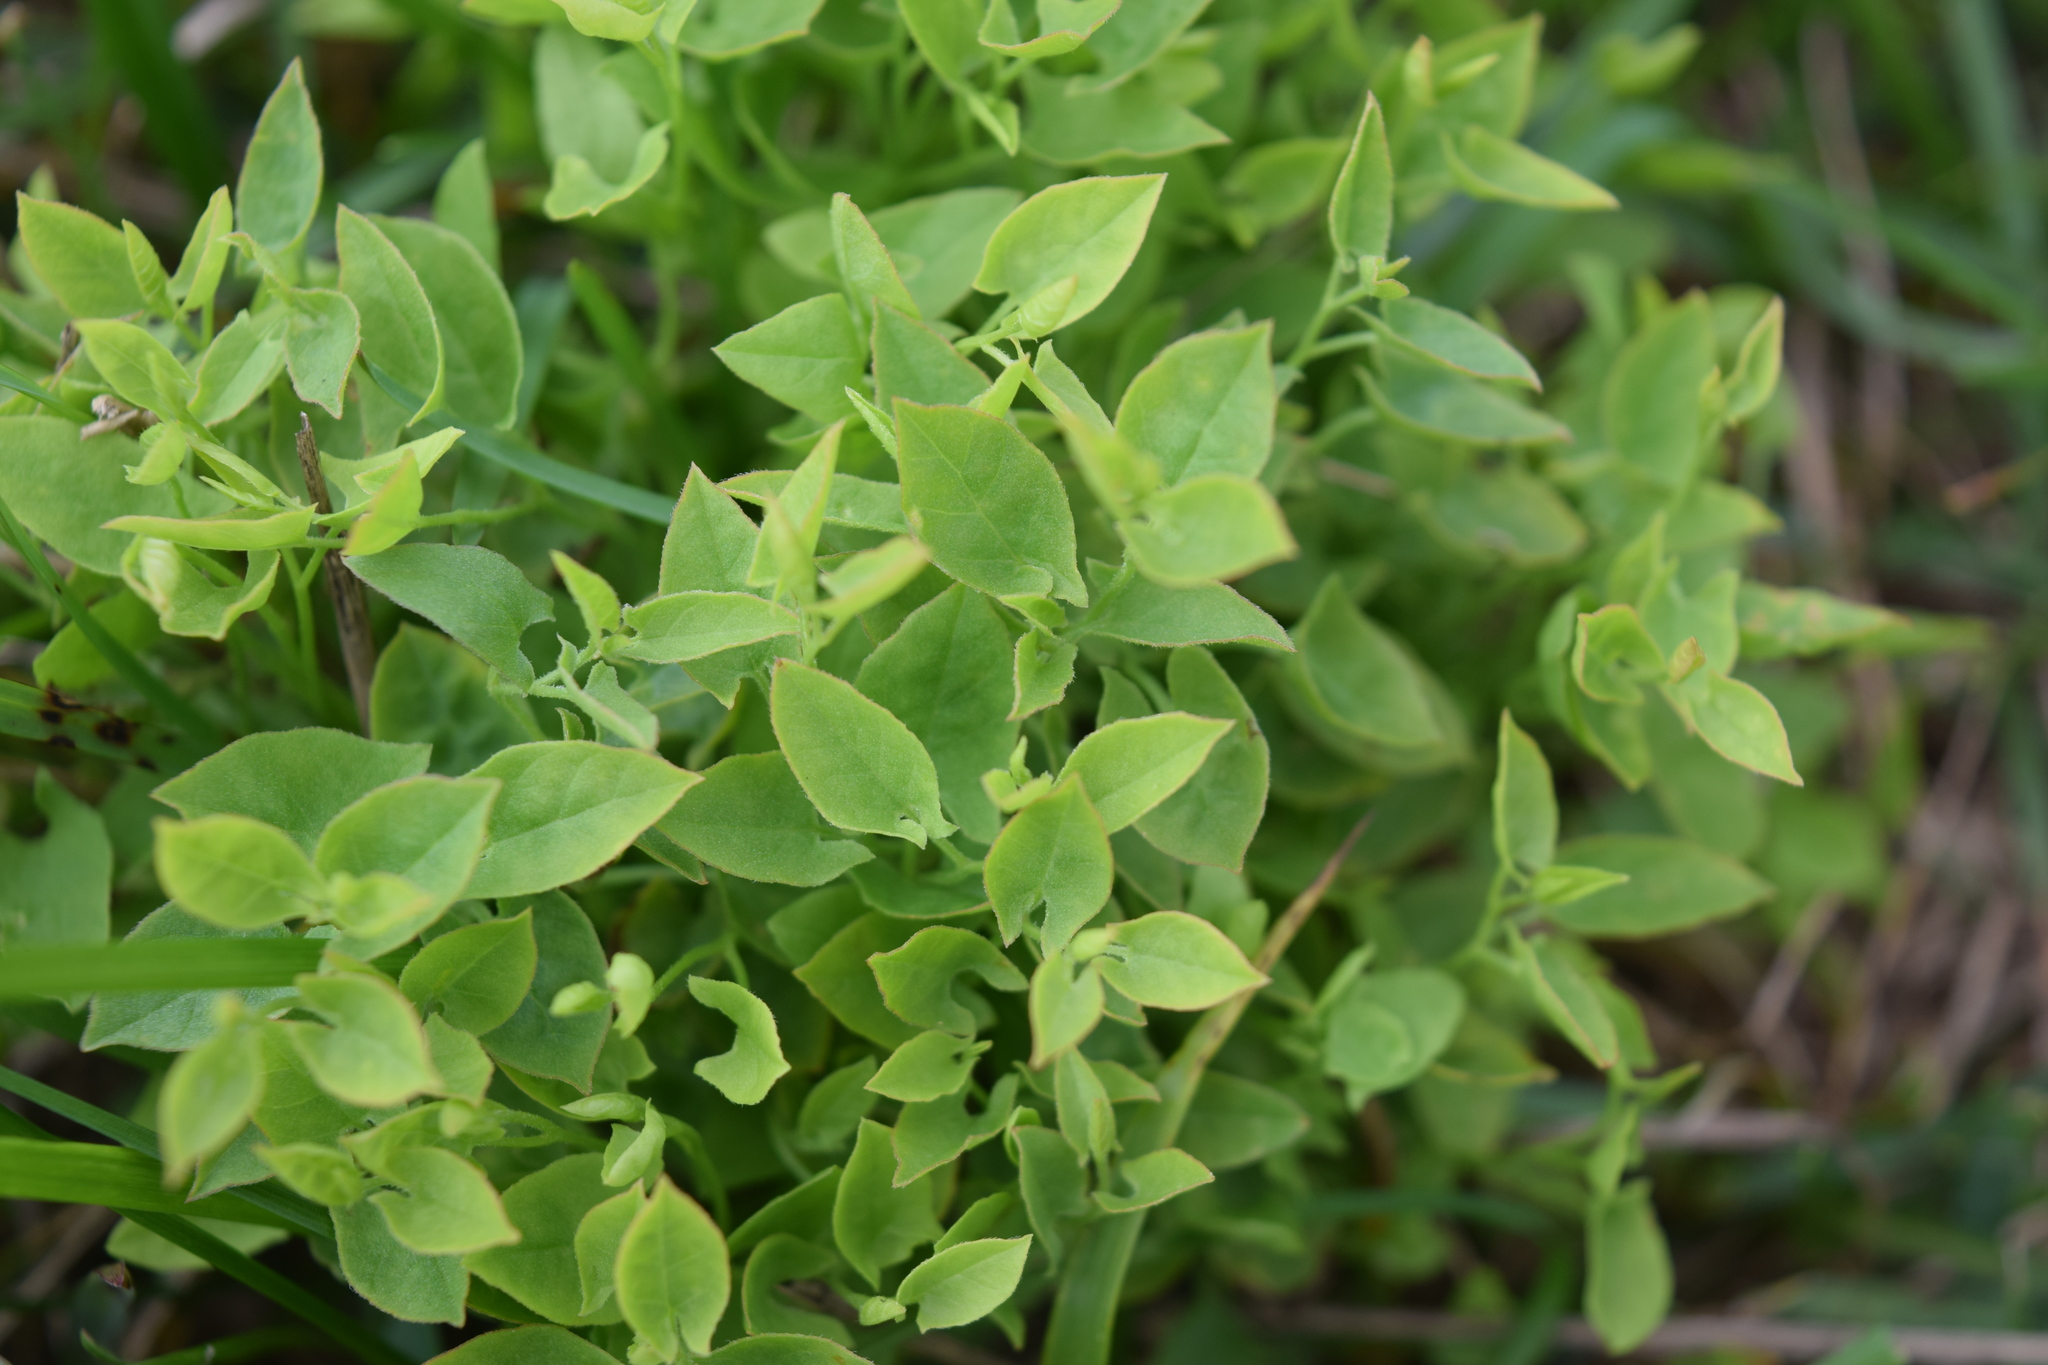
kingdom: Plantae
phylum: Tracheophyta
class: Magnoliopsida
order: Solanales
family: Convolvulaceae
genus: Convolvulus
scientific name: Convolvulus arvensis
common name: Field bindweed
